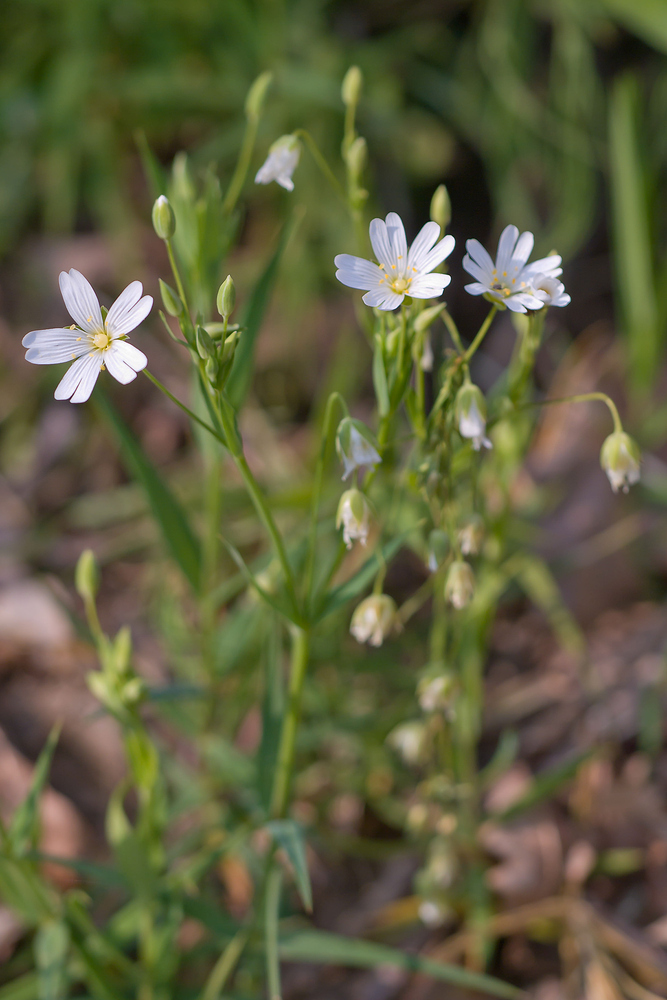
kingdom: Plantae
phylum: Tracheophyta
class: Magnoliopsida
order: Caryophyllales
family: Caryophyllaceae
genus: Rabelera
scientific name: Rabelera holostea
